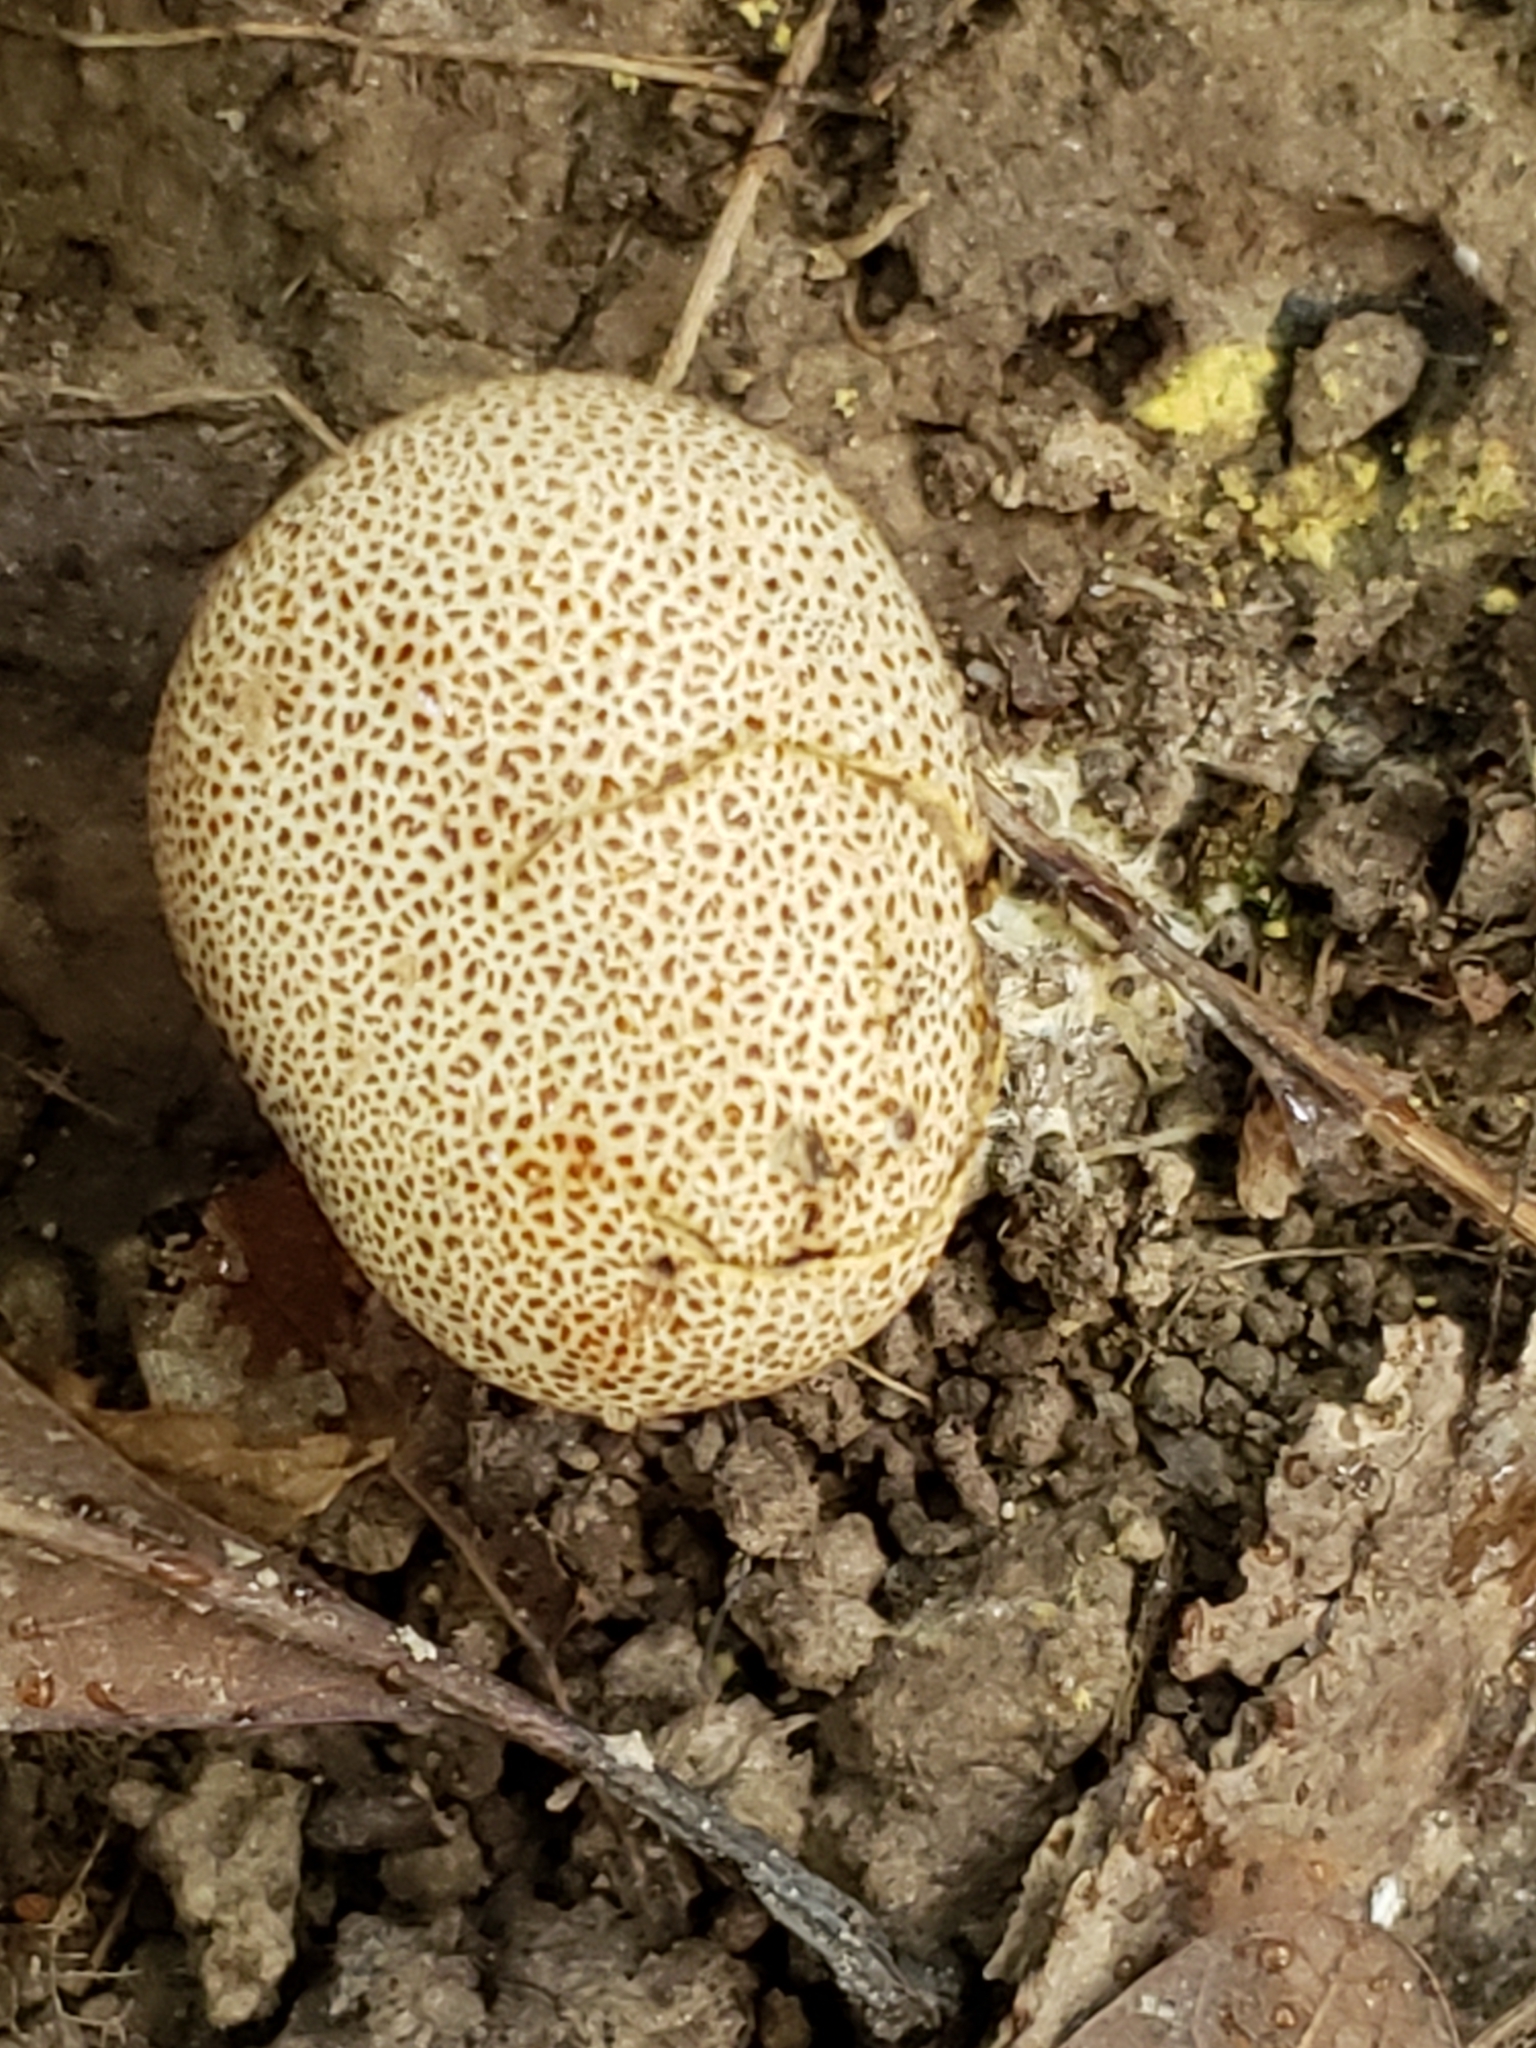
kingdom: Fungi
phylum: Basidiomycota
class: Agaricomycetes
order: Boletales
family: Sclerodermataceae
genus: Scleroderma
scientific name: Scleroderma citrinum
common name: Common earthball
